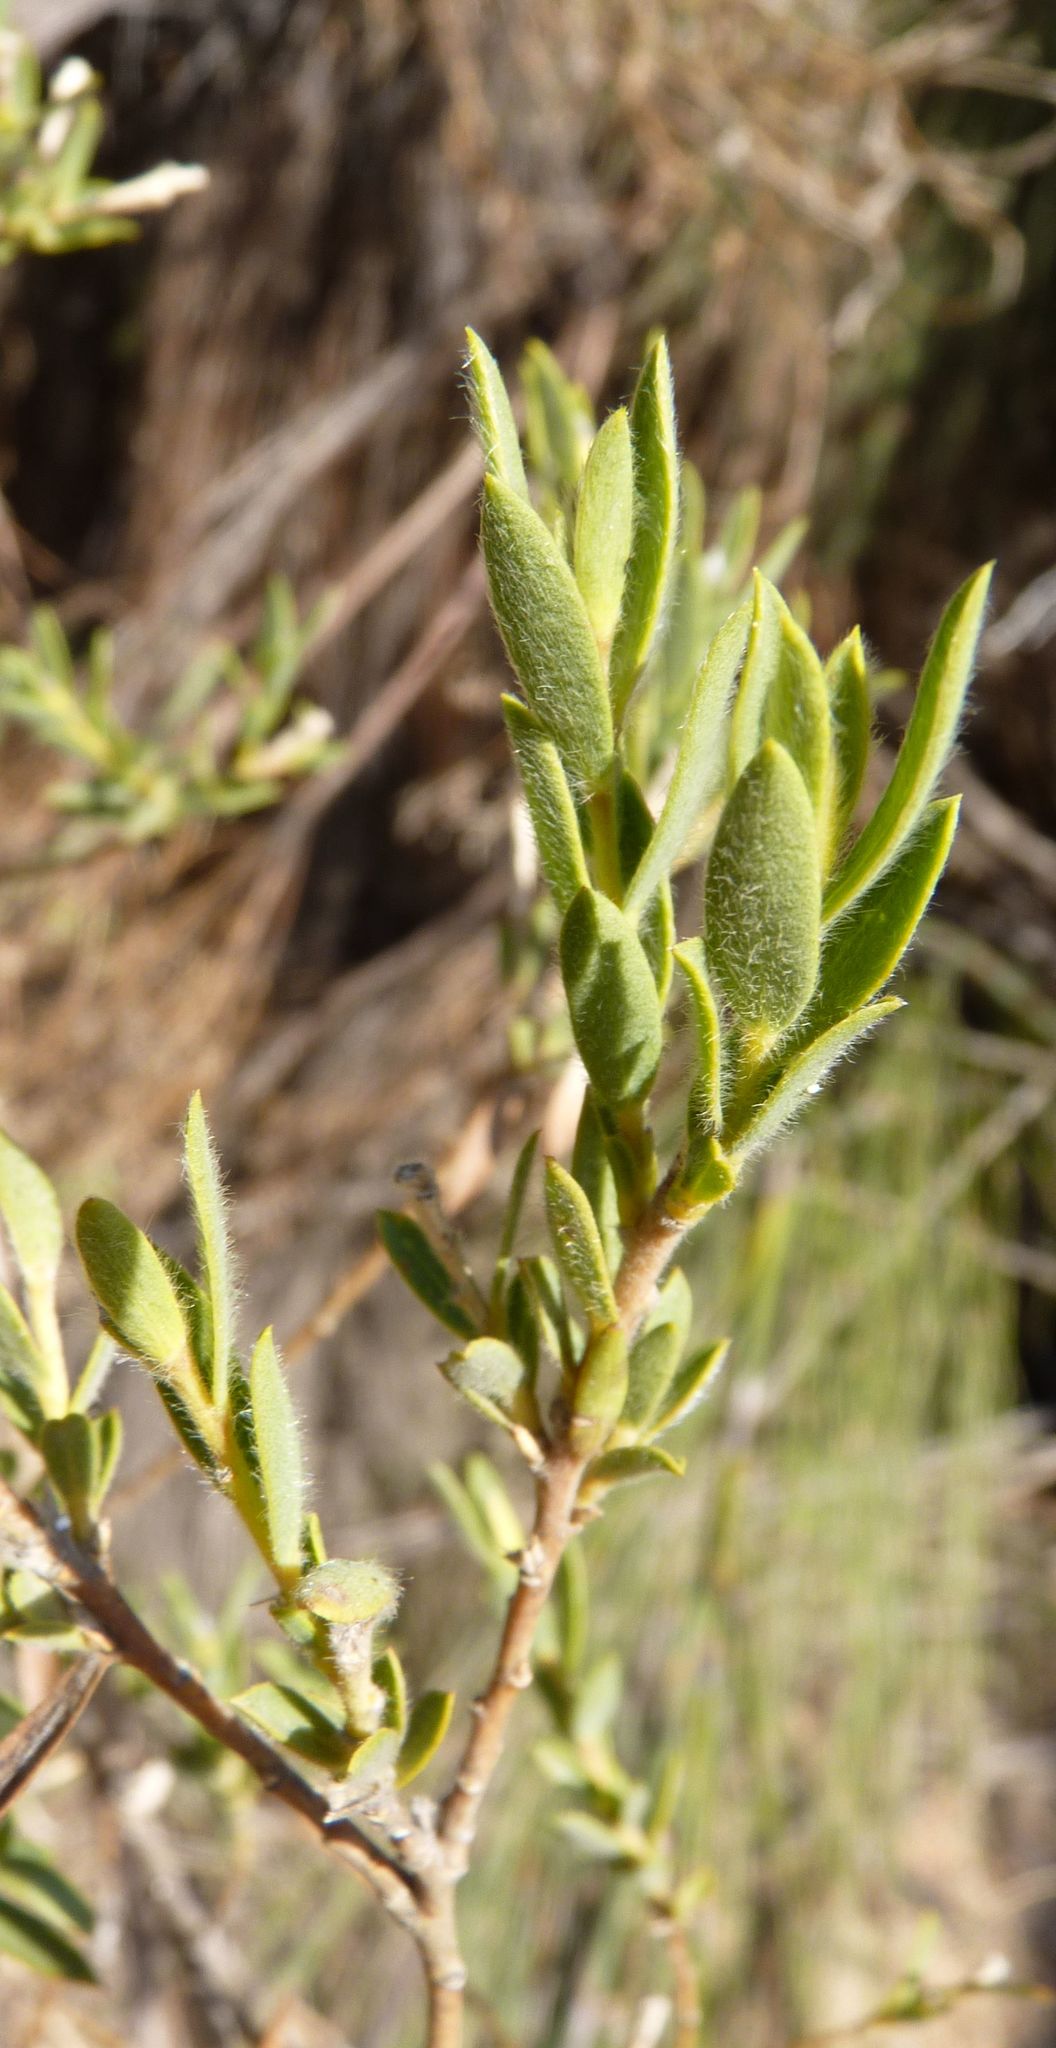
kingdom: Plantae
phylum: Tracheophyta
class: Magnoliopsida
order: Fabales
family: Fabaceae
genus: Liparia
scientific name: Liparia racemosa
